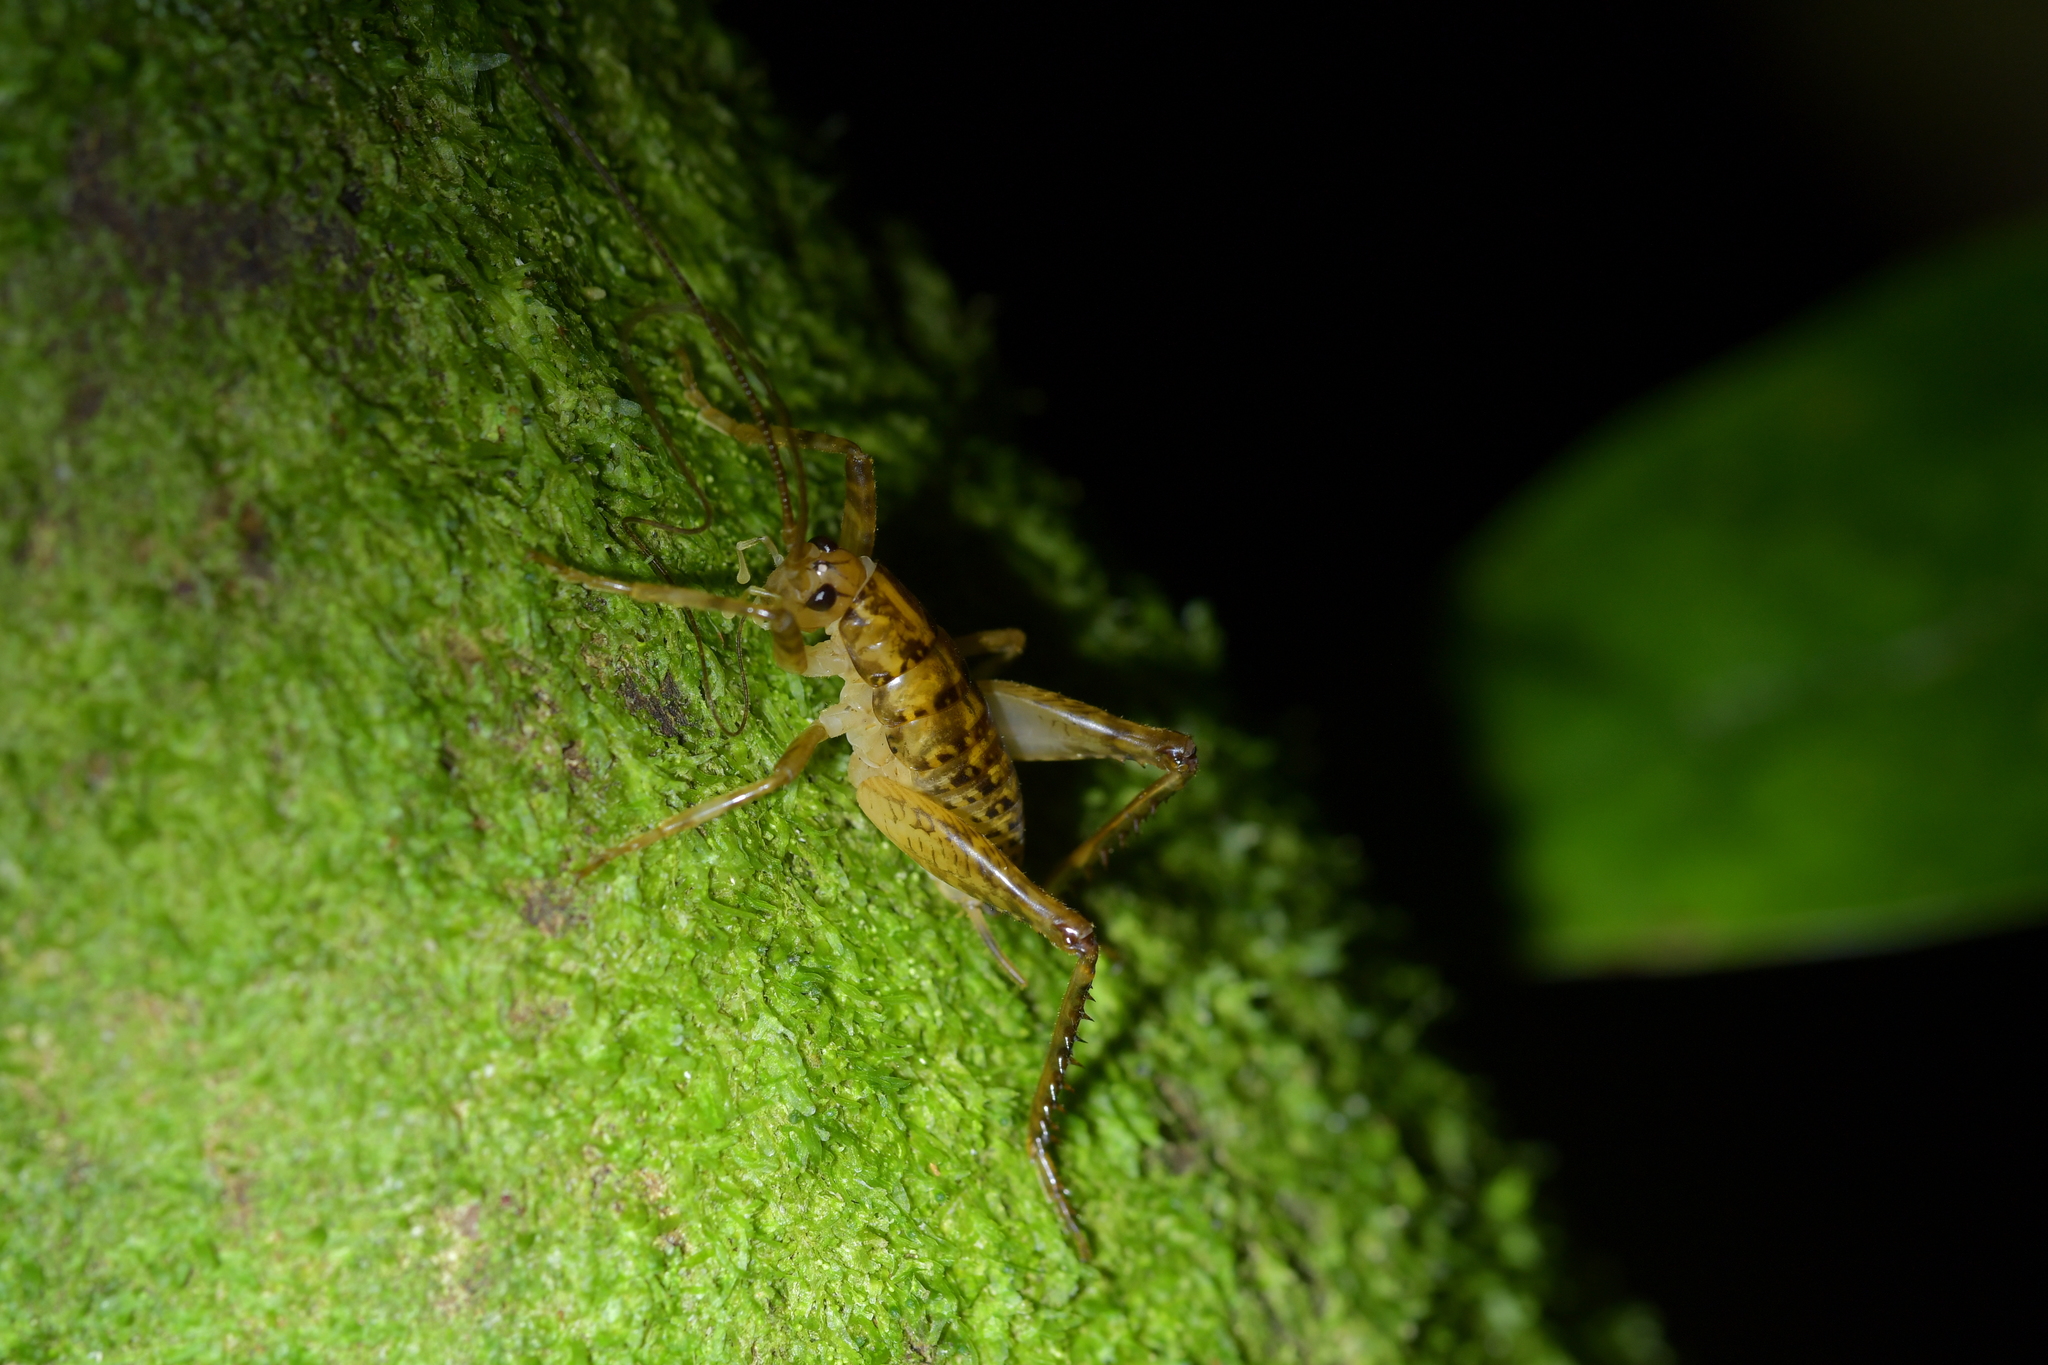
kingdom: Animalia
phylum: Arthropoda
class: Insecta
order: Orthoptera
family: Rhaphidophoridae
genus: Talitropsis
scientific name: Talitropsis sedilloti
